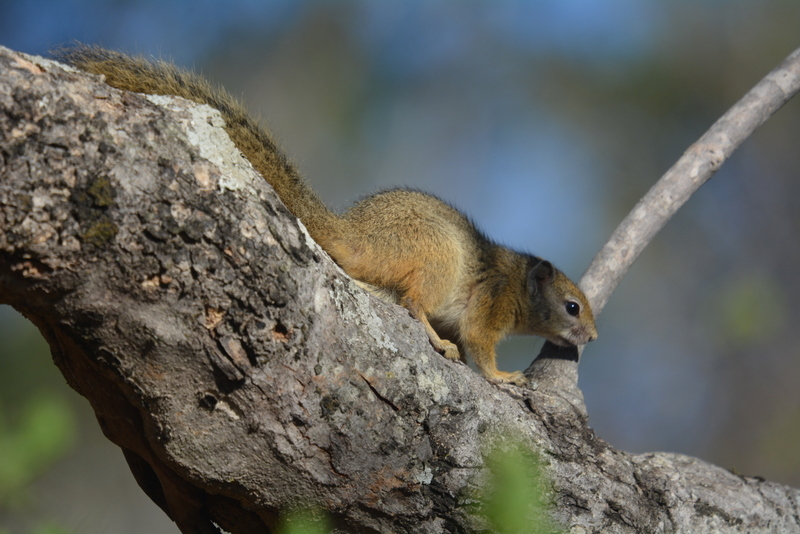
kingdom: Animalia
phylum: Chordata
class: Mammalia
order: Rodentia
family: Sciuridae
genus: Paraxerus
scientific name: Paraxerus cepapi
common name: Smith's bush squirrel
